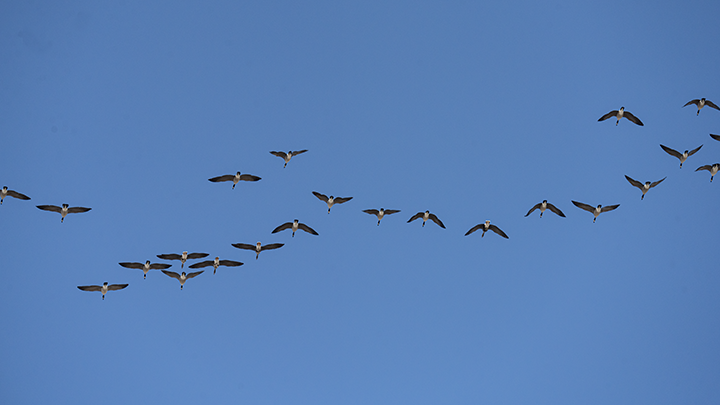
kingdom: Animalia
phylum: Chordata
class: Aves
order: Anseriformes
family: Anatidae
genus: Branta
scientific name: Branta canadensis
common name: Canada goose
